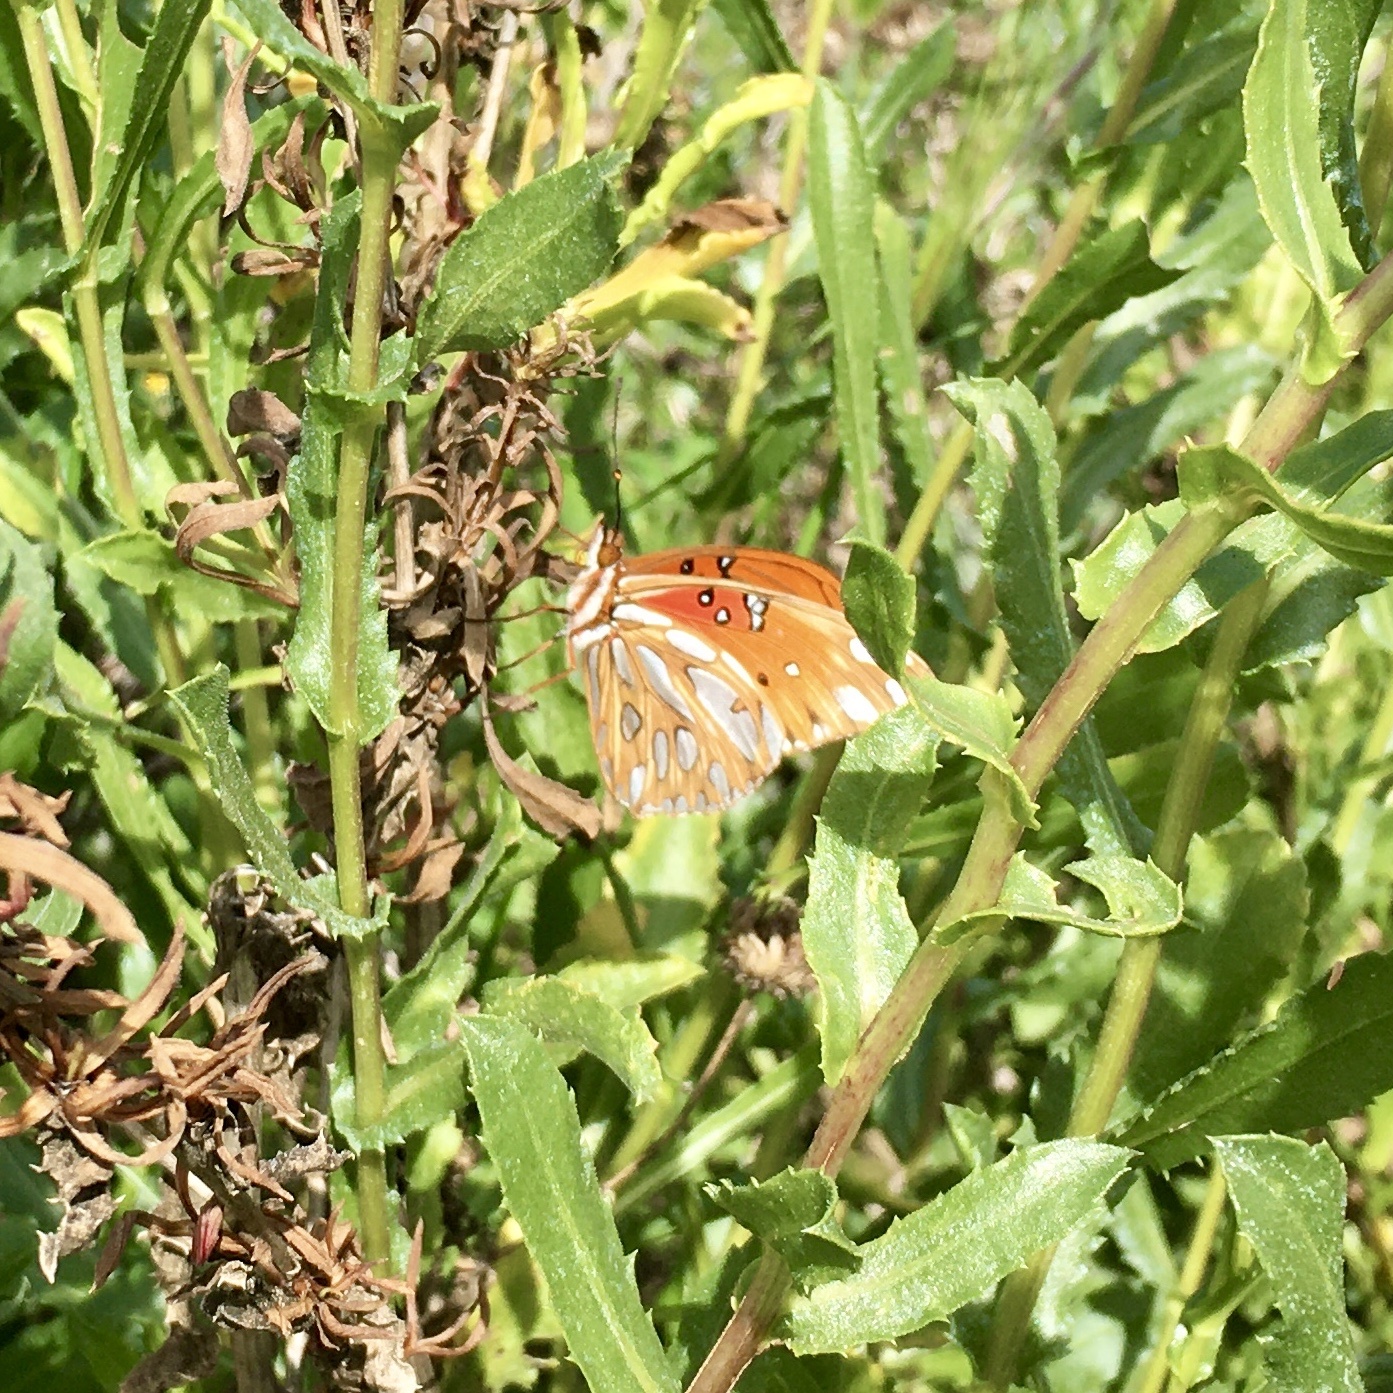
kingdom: Animalia
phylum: Arthropoda
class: Insecta
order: Lepidoptera
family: Nymphalidae
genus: Dione
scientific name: Dione vanillae
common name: Gulf fritillary
